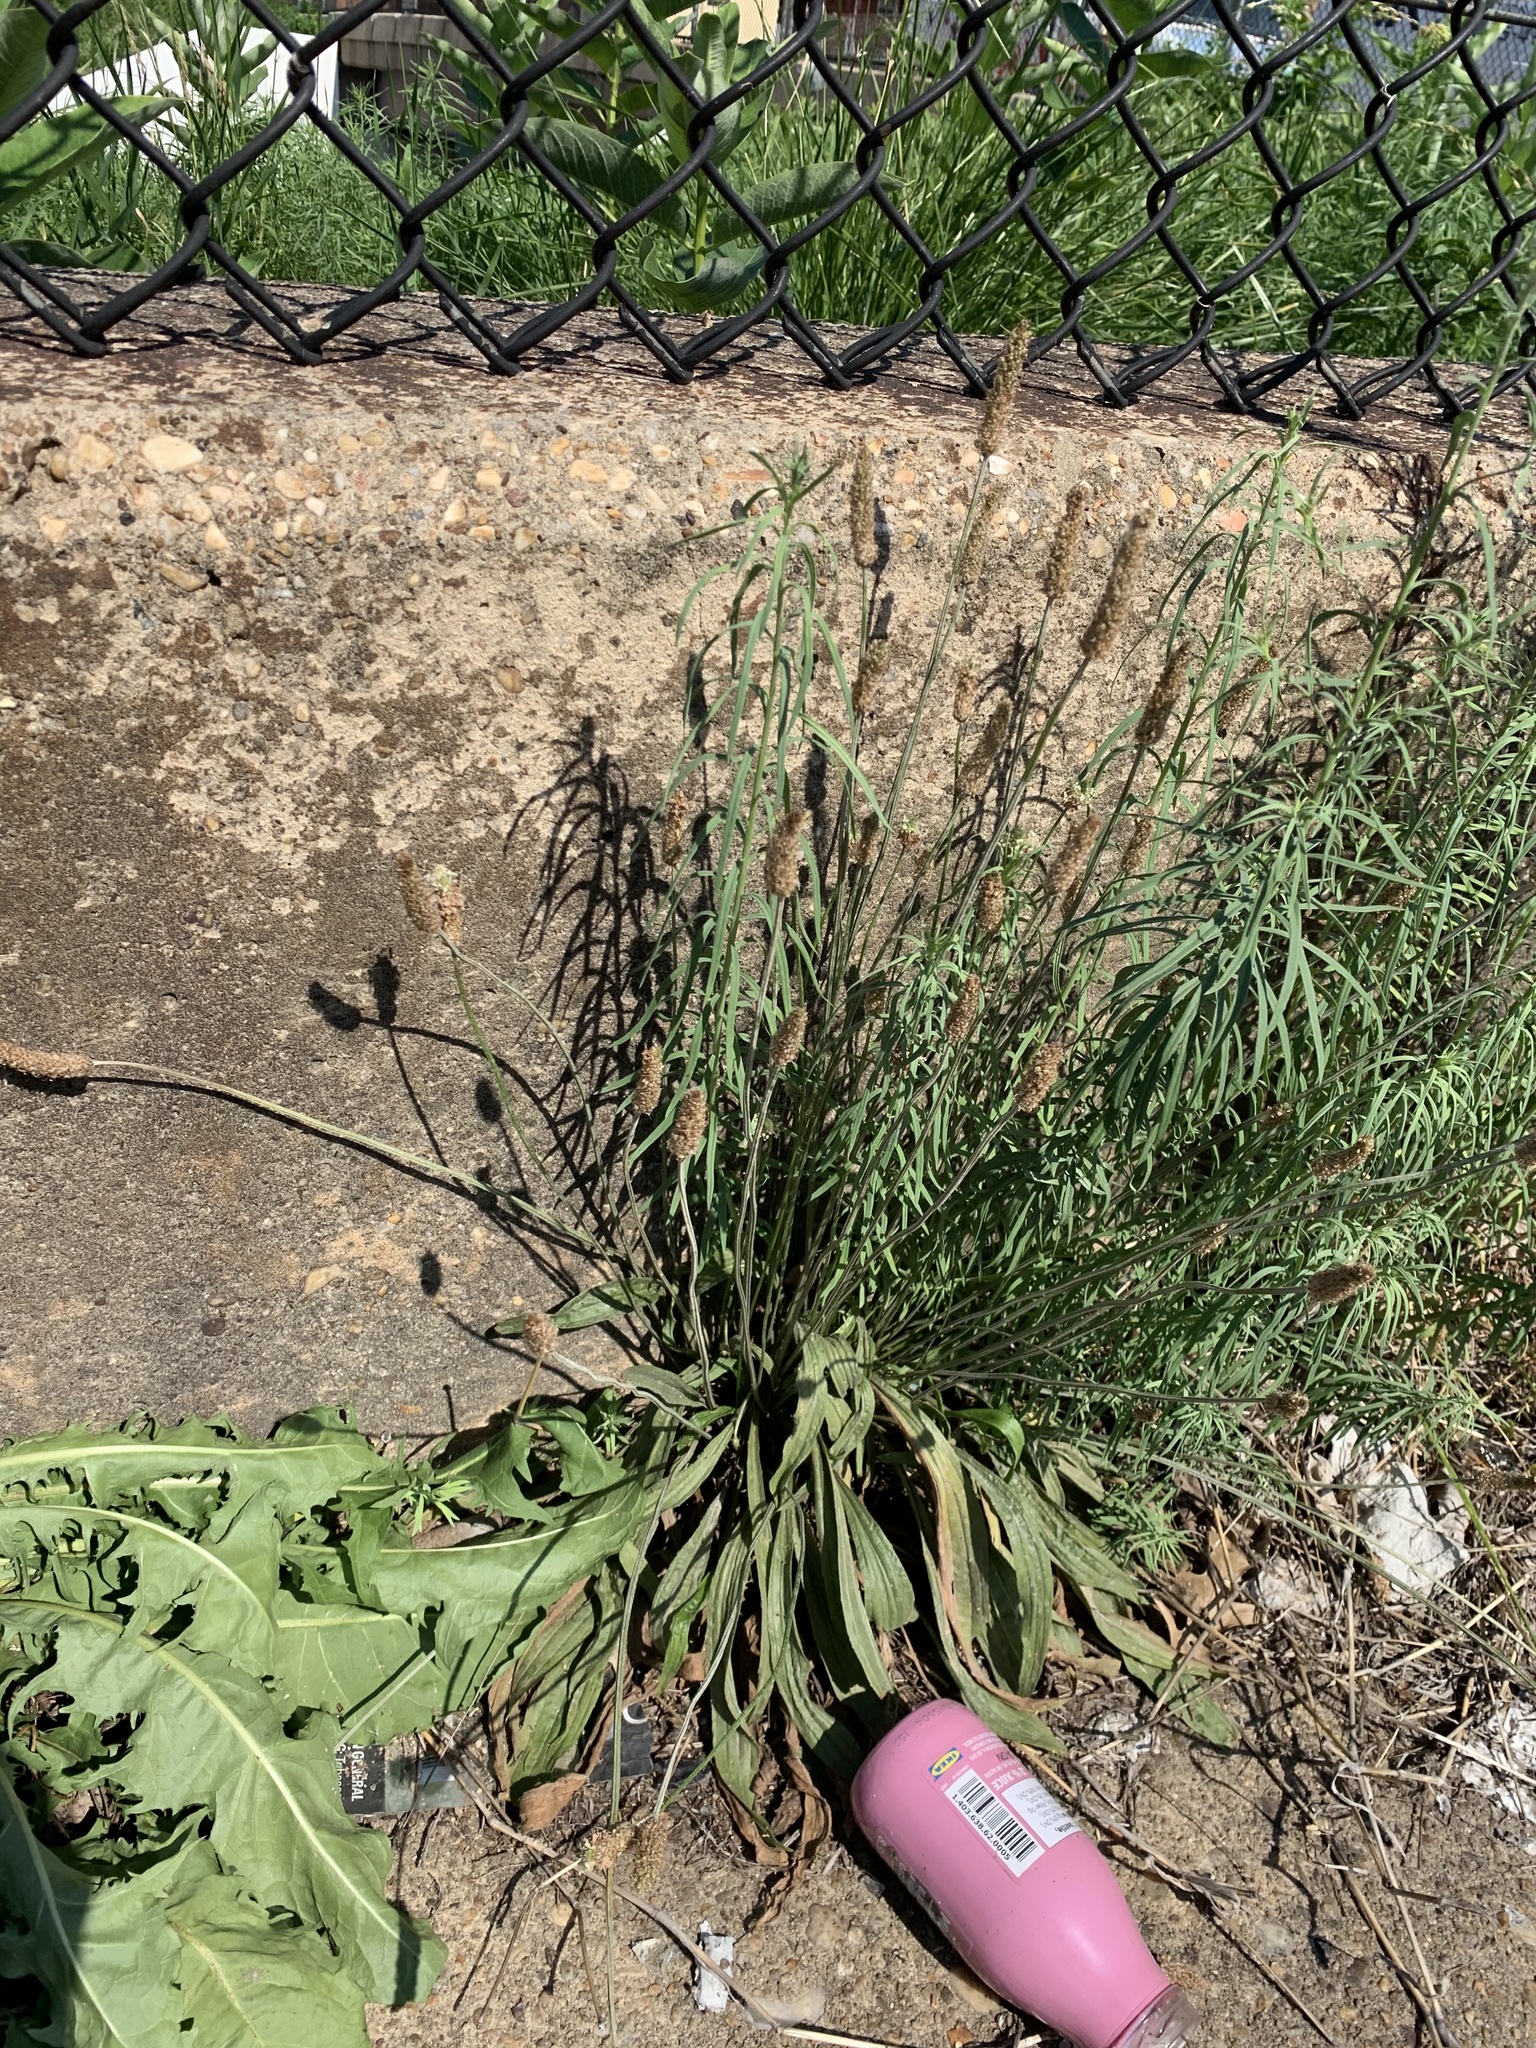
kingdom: Plantae
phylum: Tracheophyta
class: Magnoliopsida
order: Lamiales
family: Plantaginaceae
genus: Plantago
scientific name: Plantago lanceolata
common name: Ribwort plantain
